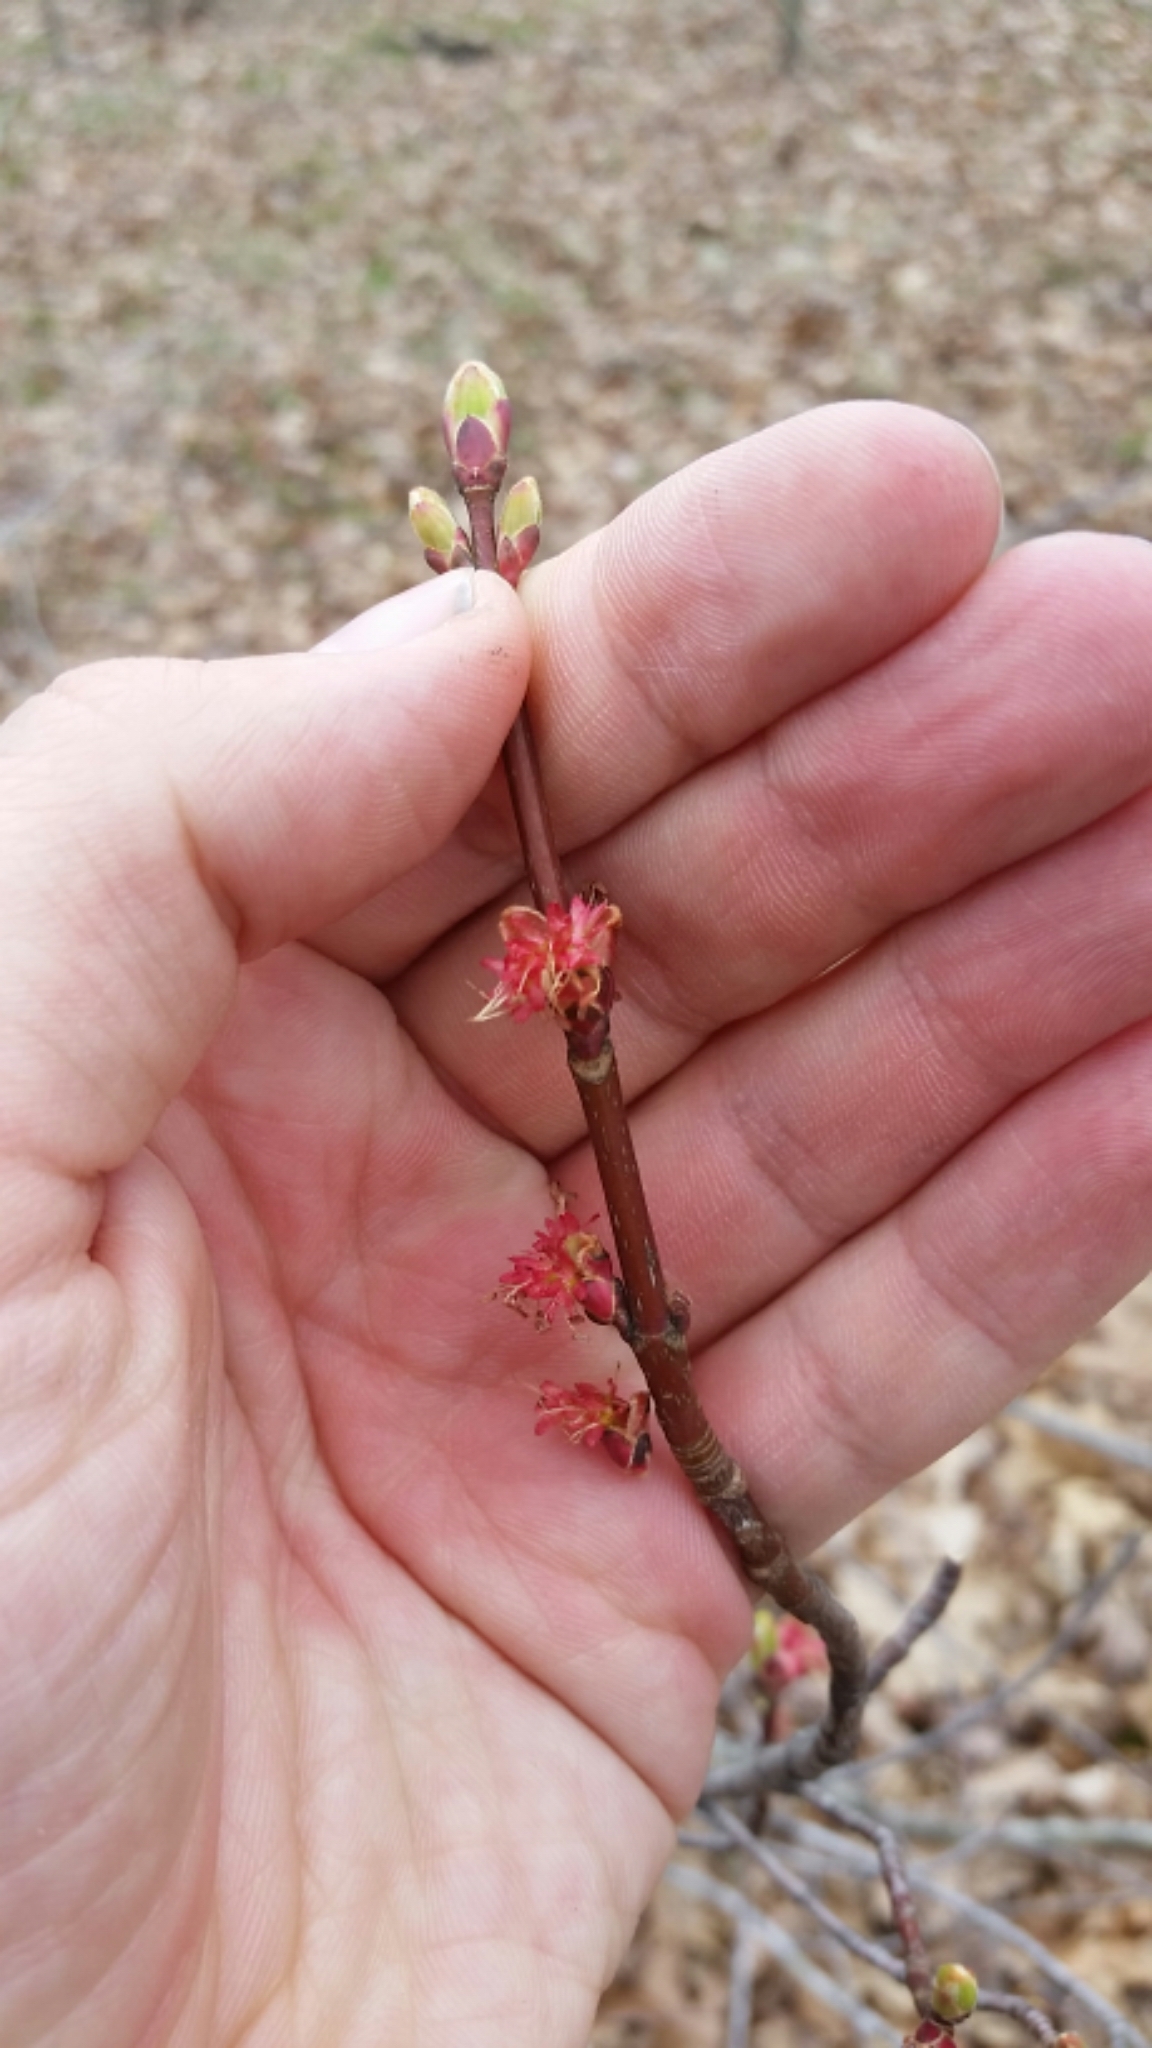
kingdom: Plantae
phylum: Tracheophyta
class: Magnoliopsida
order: Sapindales
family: Sapindaceae
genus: Acer
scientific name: Acer rubrum
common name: Red maple
